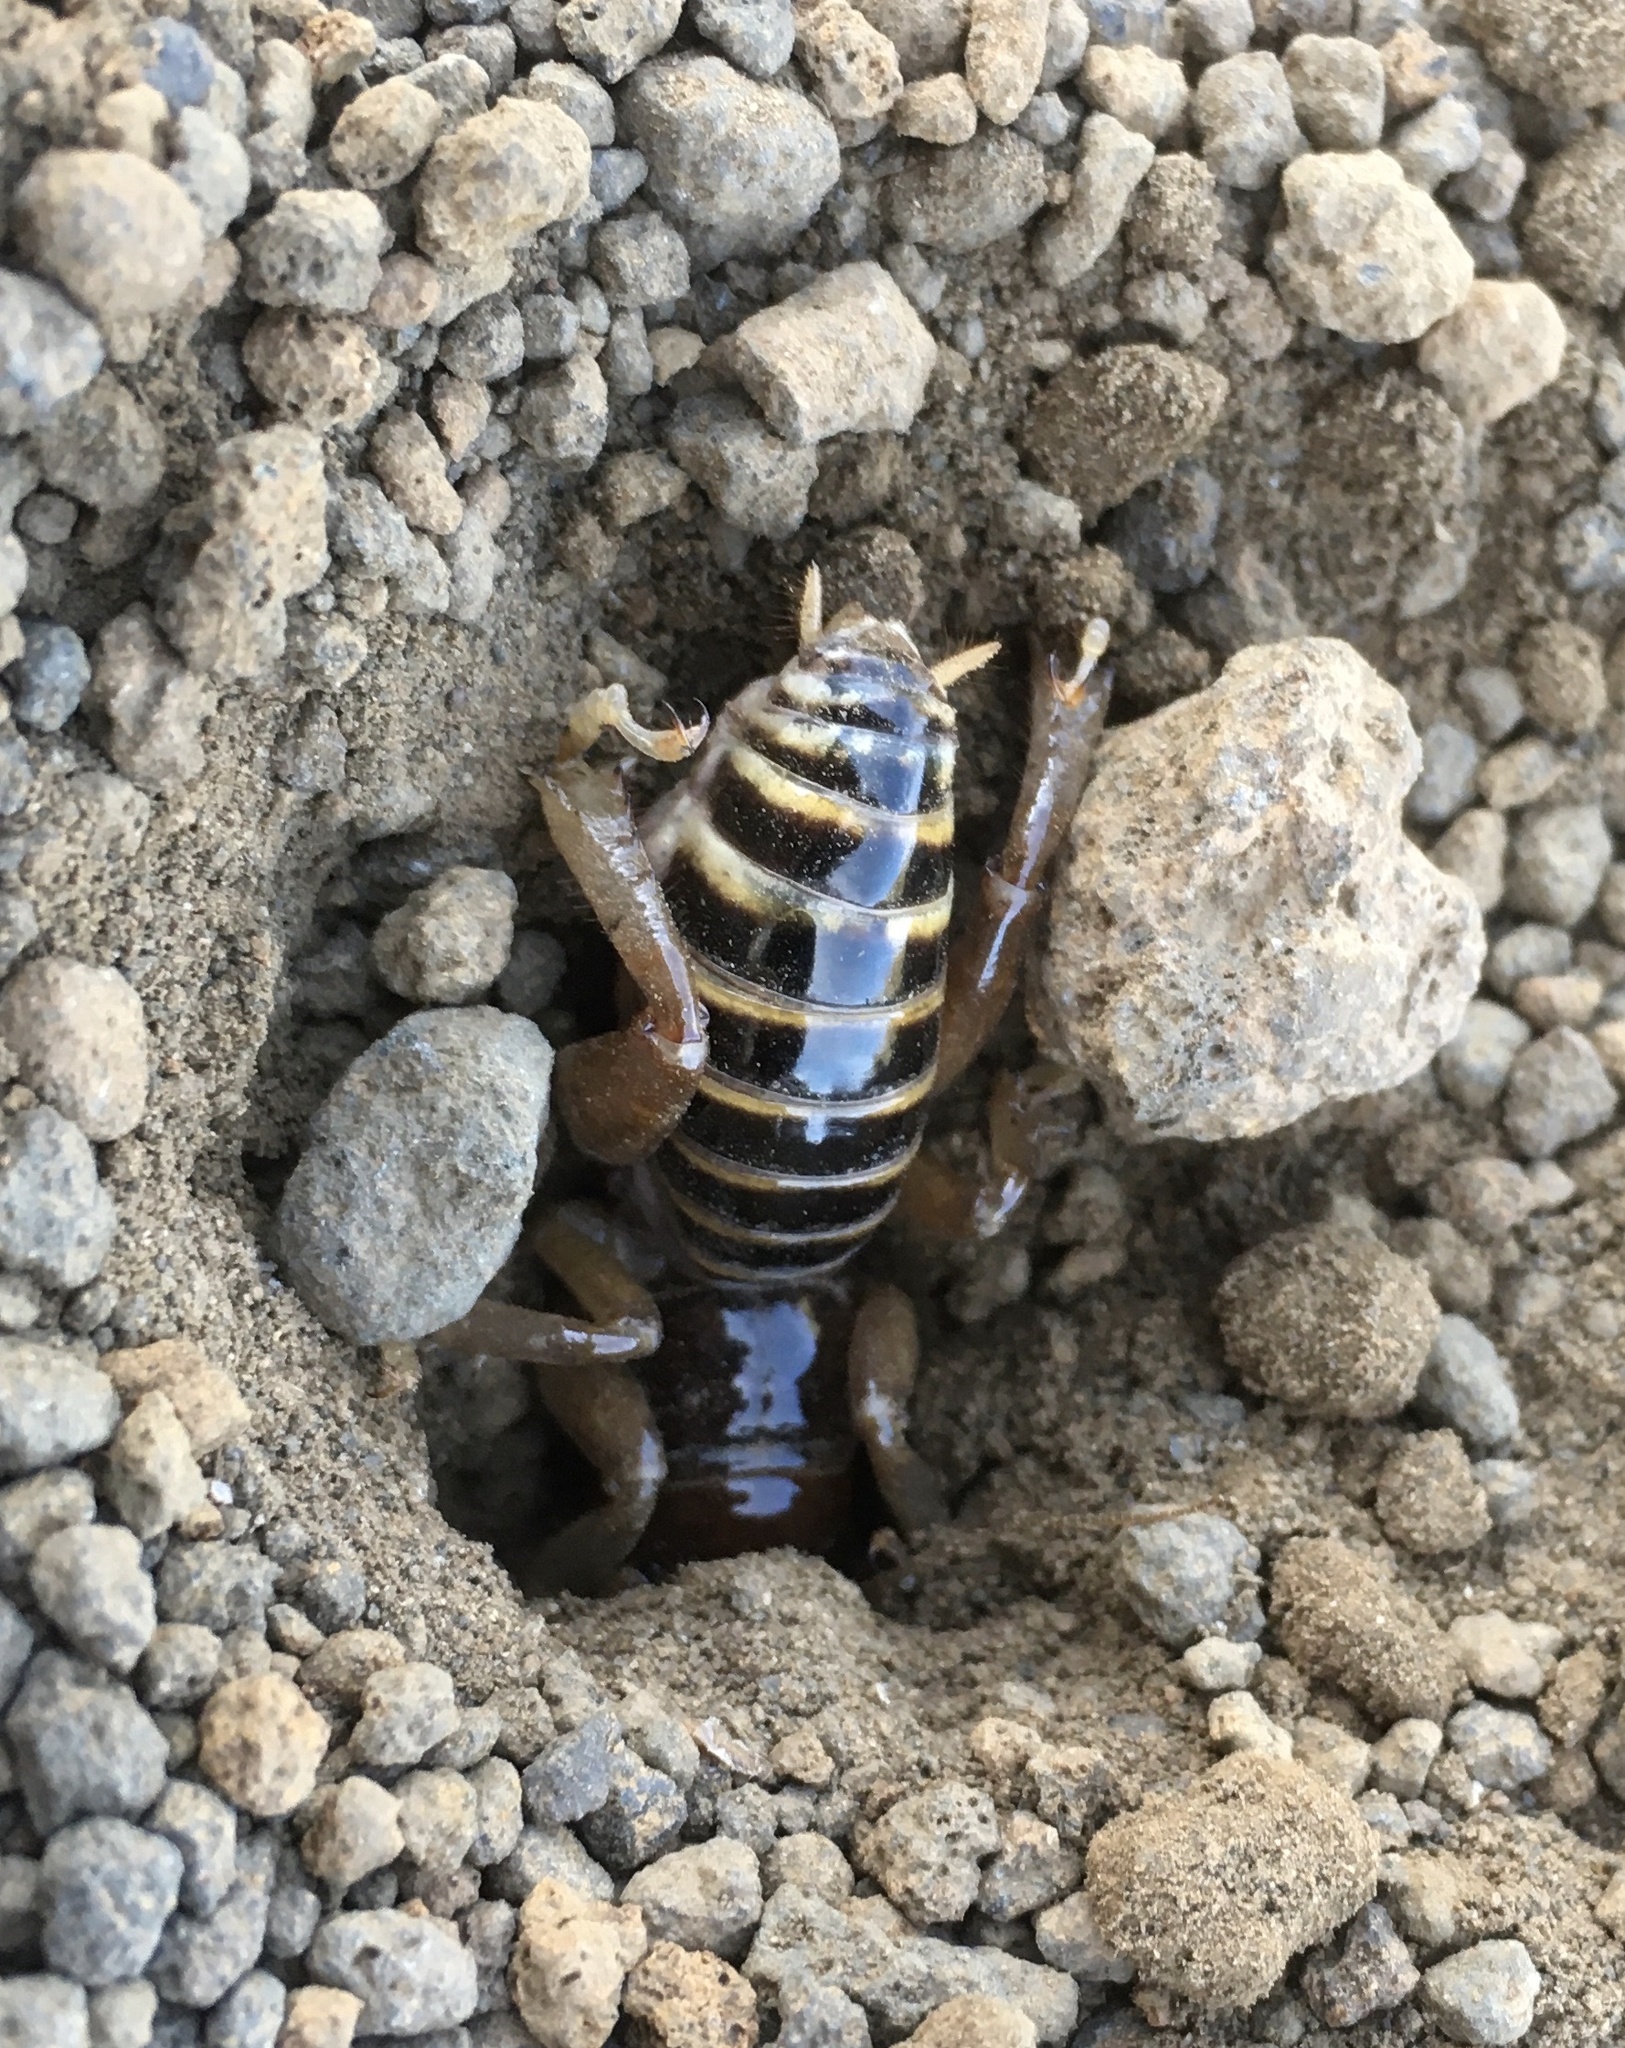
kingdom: Animalia
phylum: Arthropoda
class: Insecta
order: Orthoptera
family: Stenopelmatidae
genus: Ammopelmatus
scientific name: Ammopelmatus fuscus
